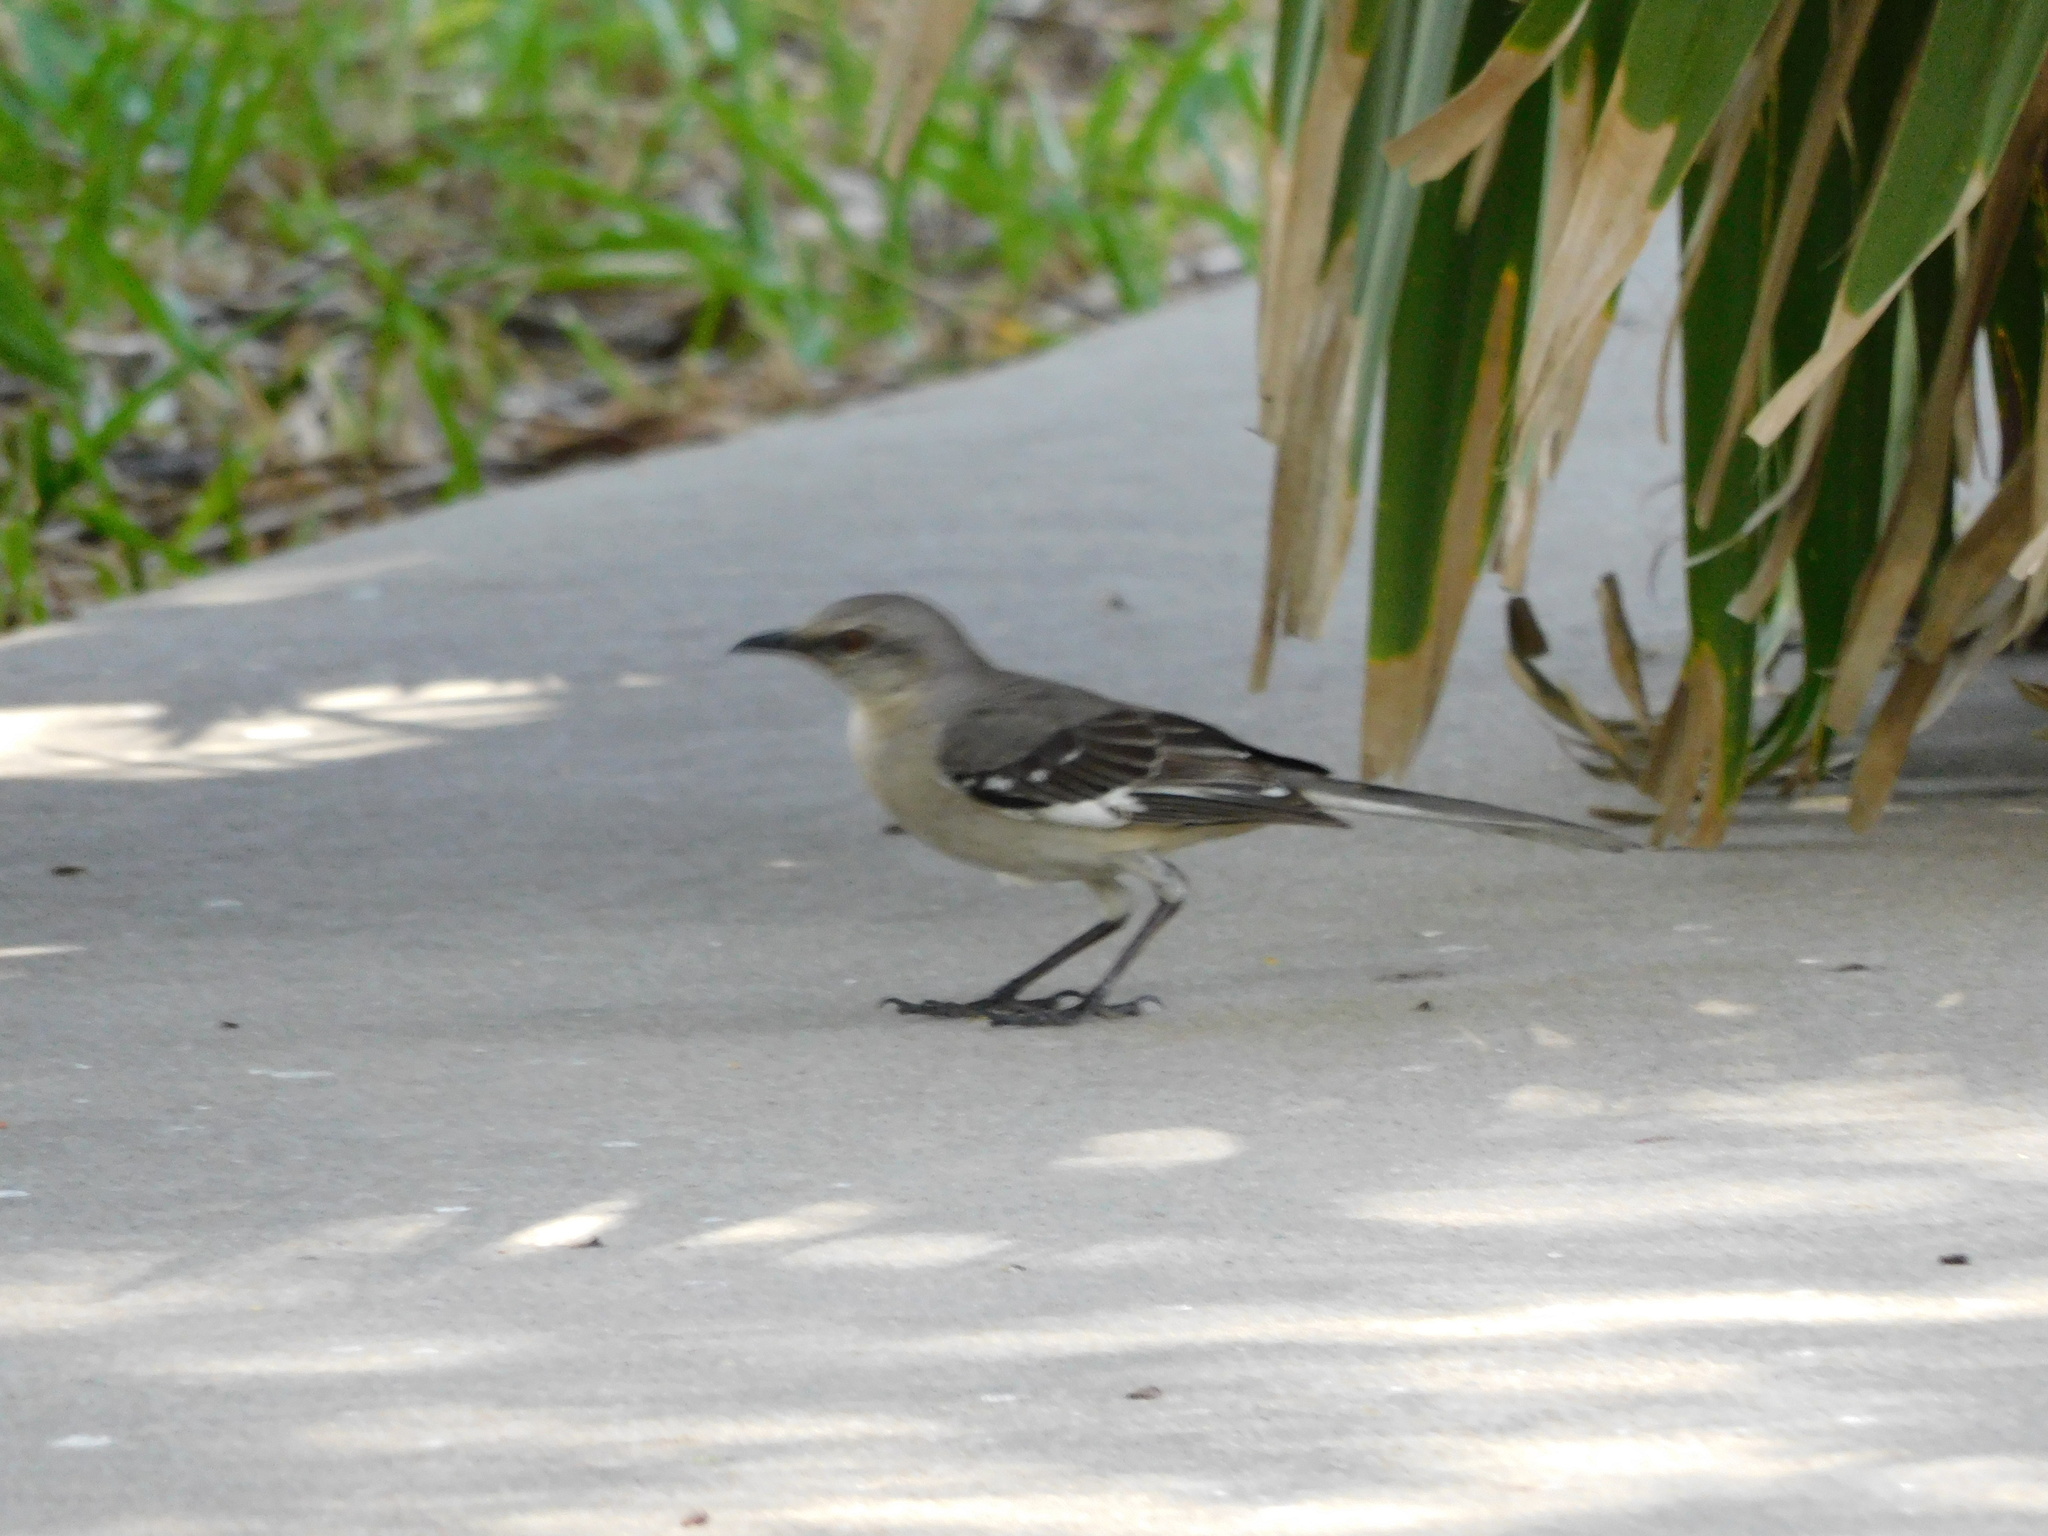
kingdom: Animalia
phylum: Chordata
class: Aves
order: Passeriformes
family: Mimidae
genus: Mimus
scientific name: Mimus polyglottos
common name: Northern mockingbird
